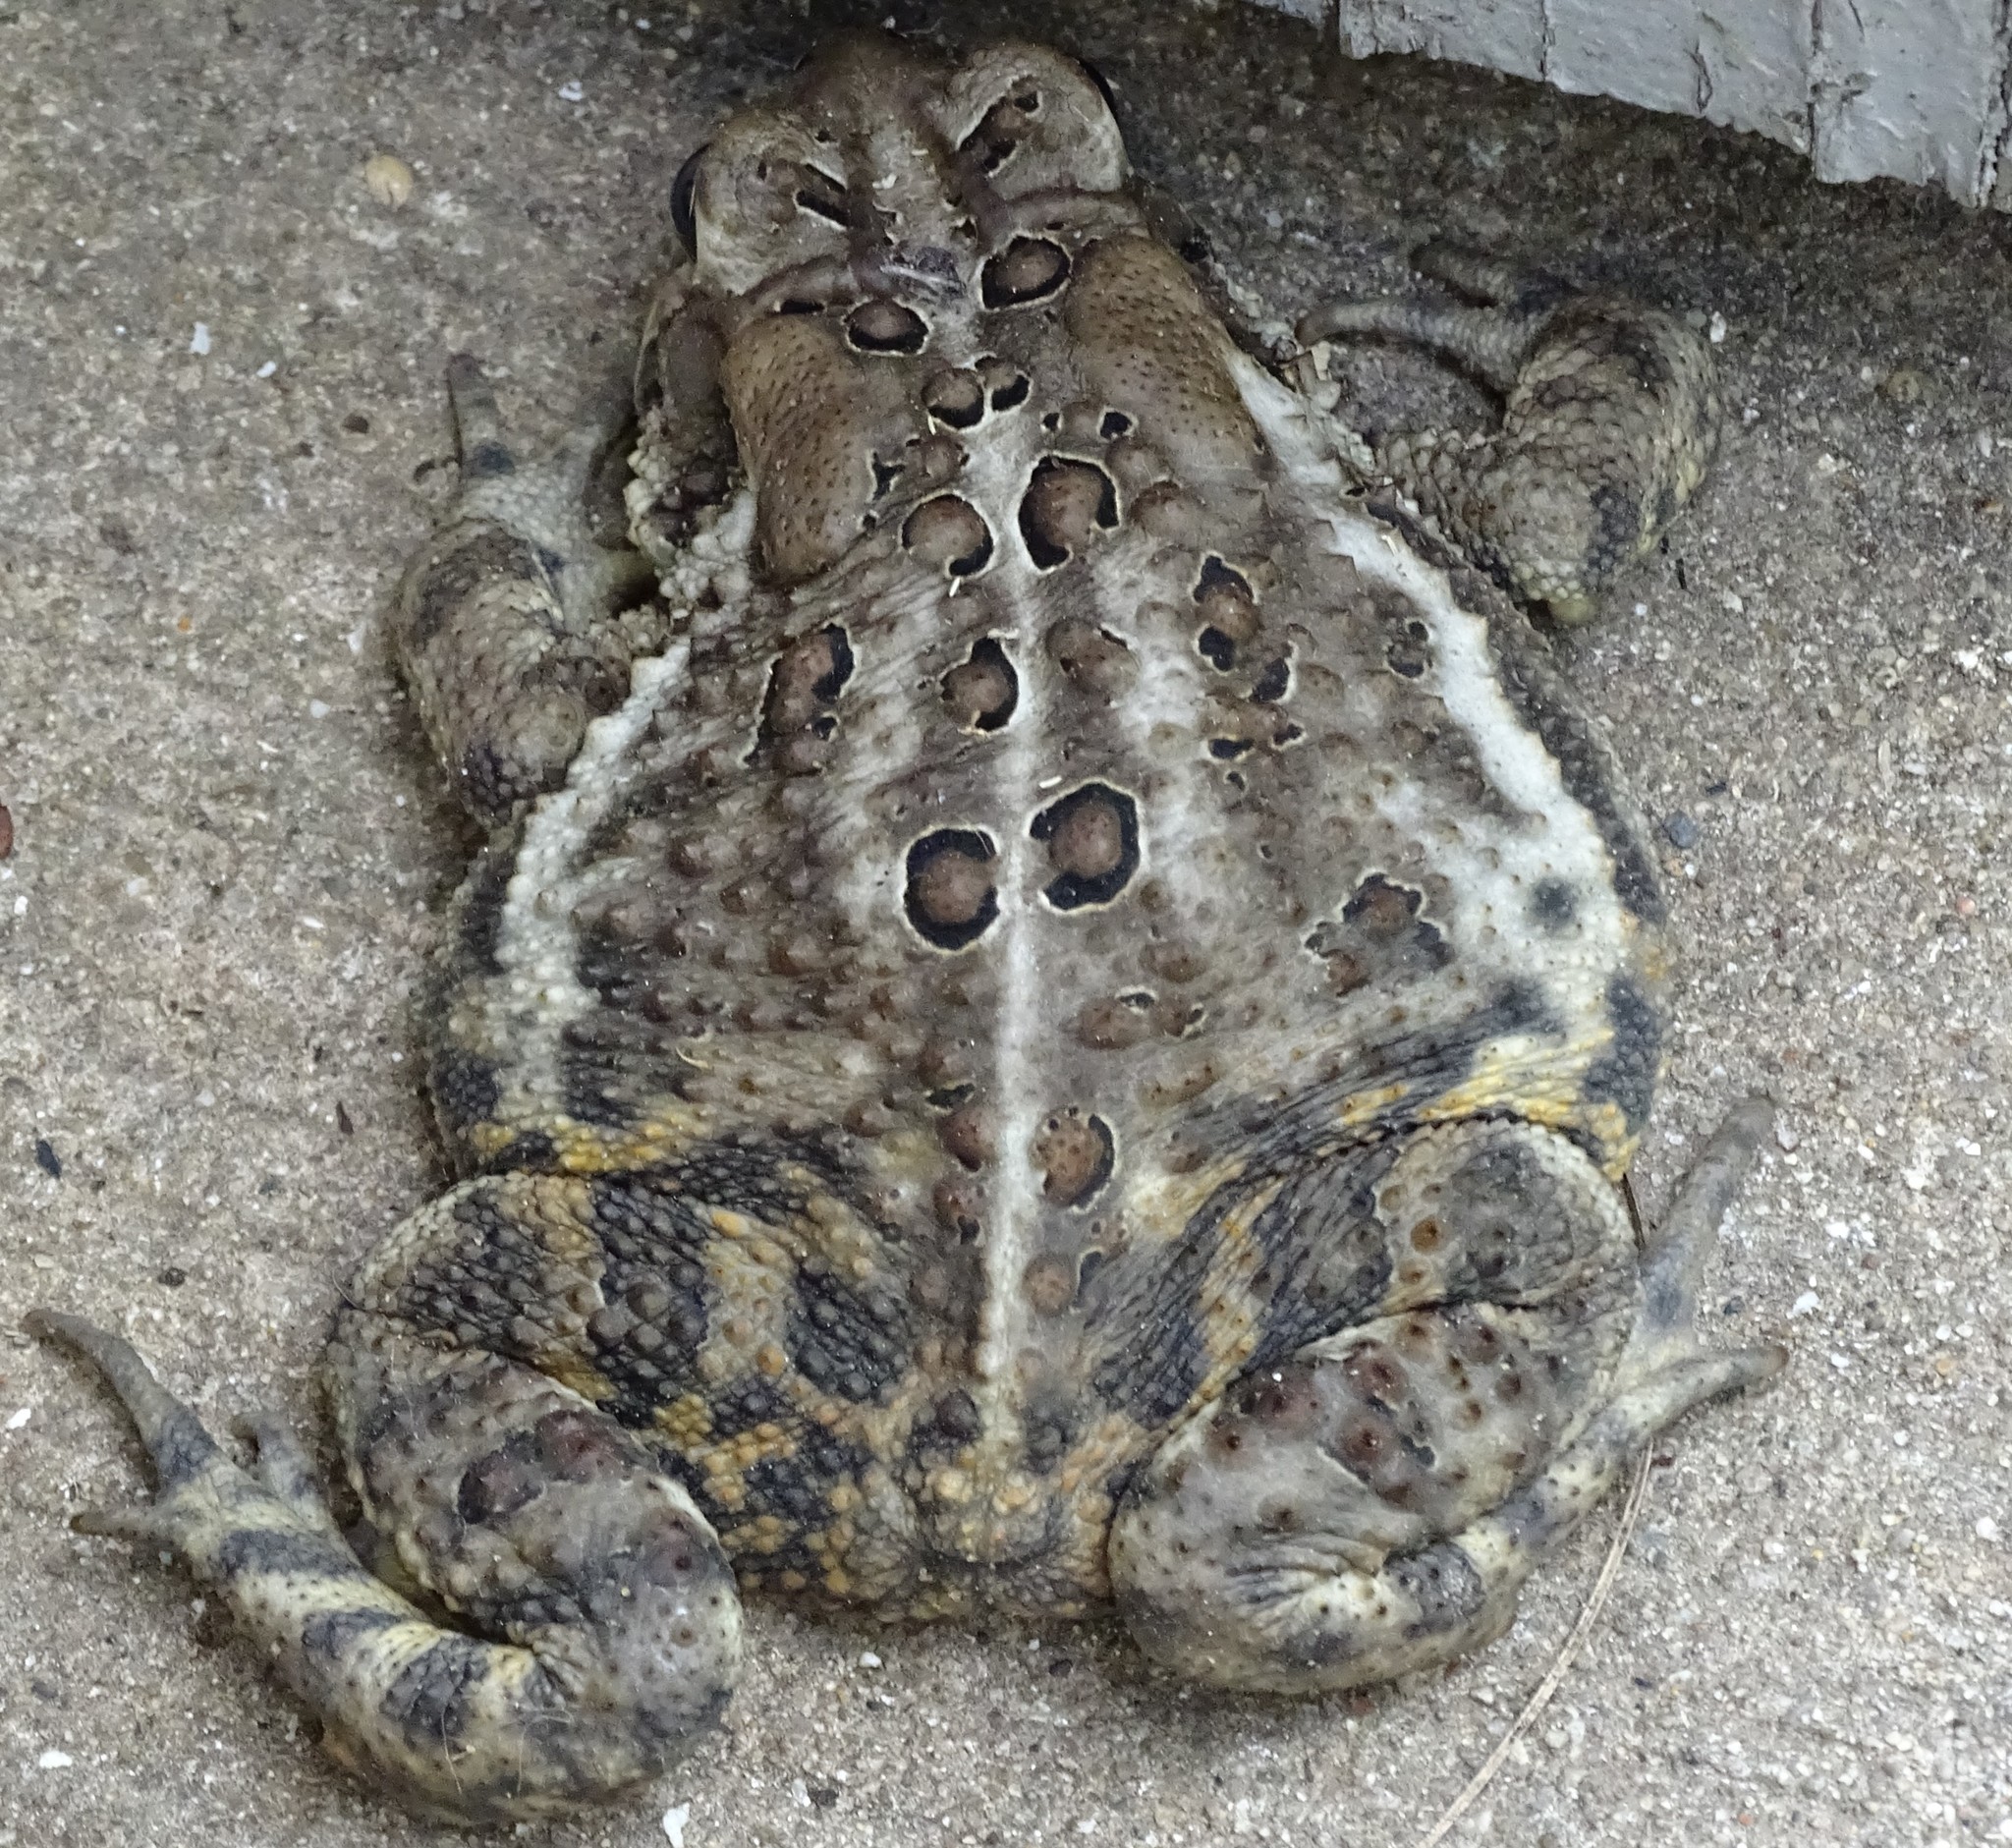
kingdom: Animalia
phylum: Chordata
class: Amphibia
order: Anura
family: Bufonidae
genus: Anaxyrus
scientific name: Anaxyrus americanus
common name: American toad
